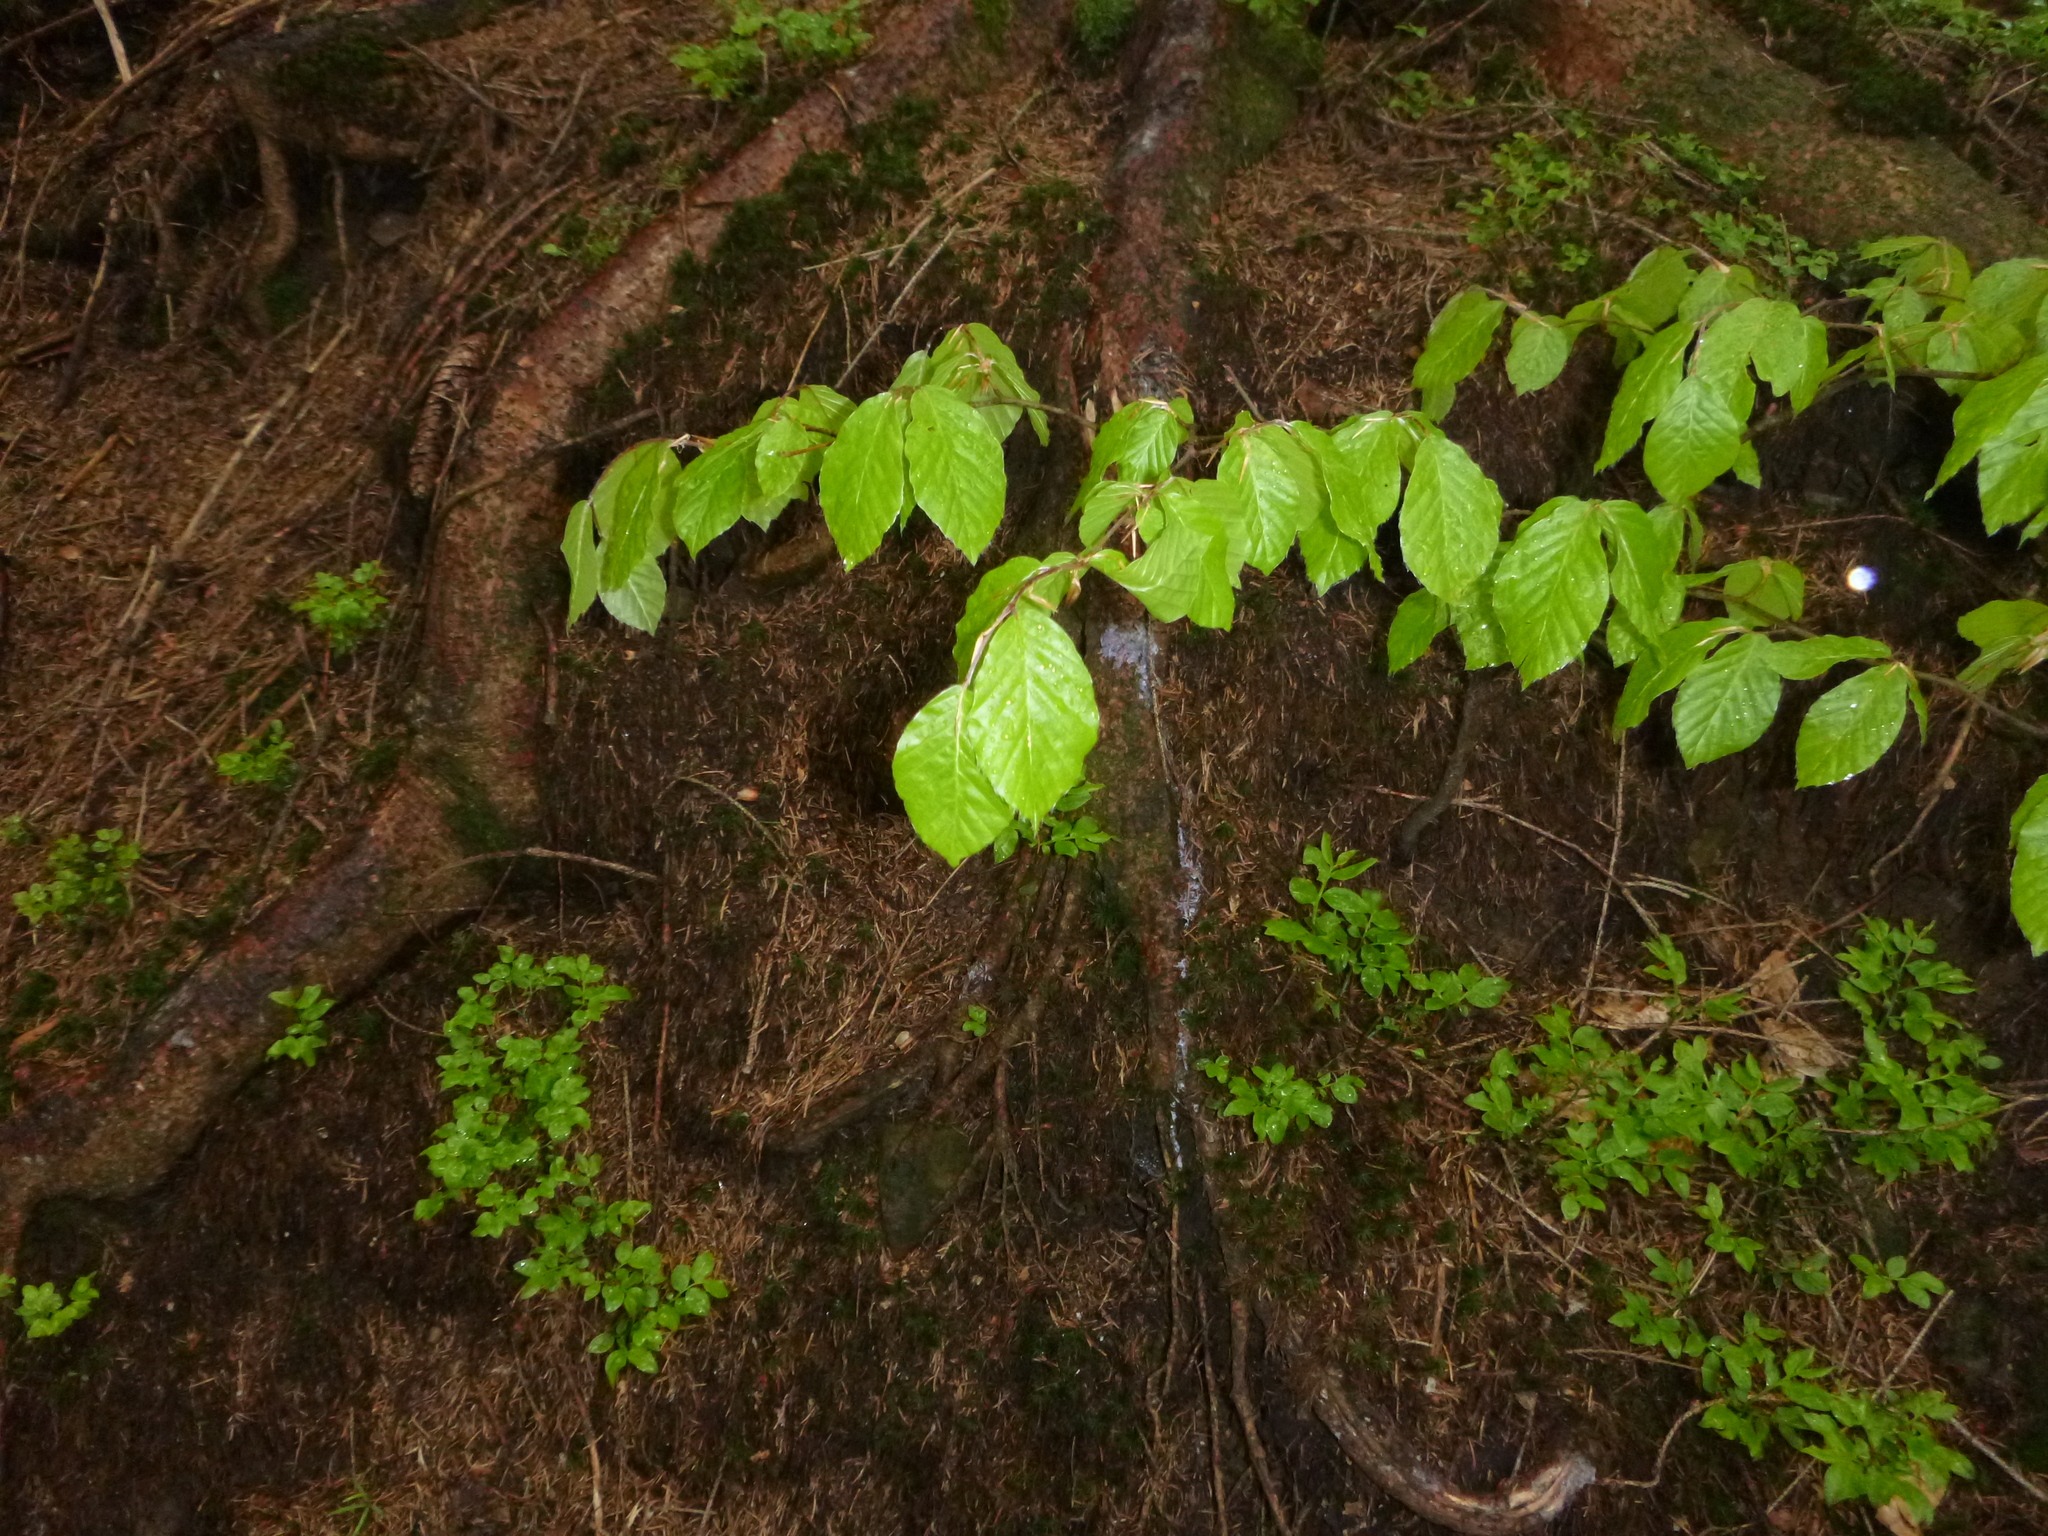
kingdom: Plantae
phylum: Tracheophyta
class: Magnoliopsida
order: Fagales
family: Fagaceae
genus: Fagus
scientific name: Fagus sylvatica
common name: Beech
